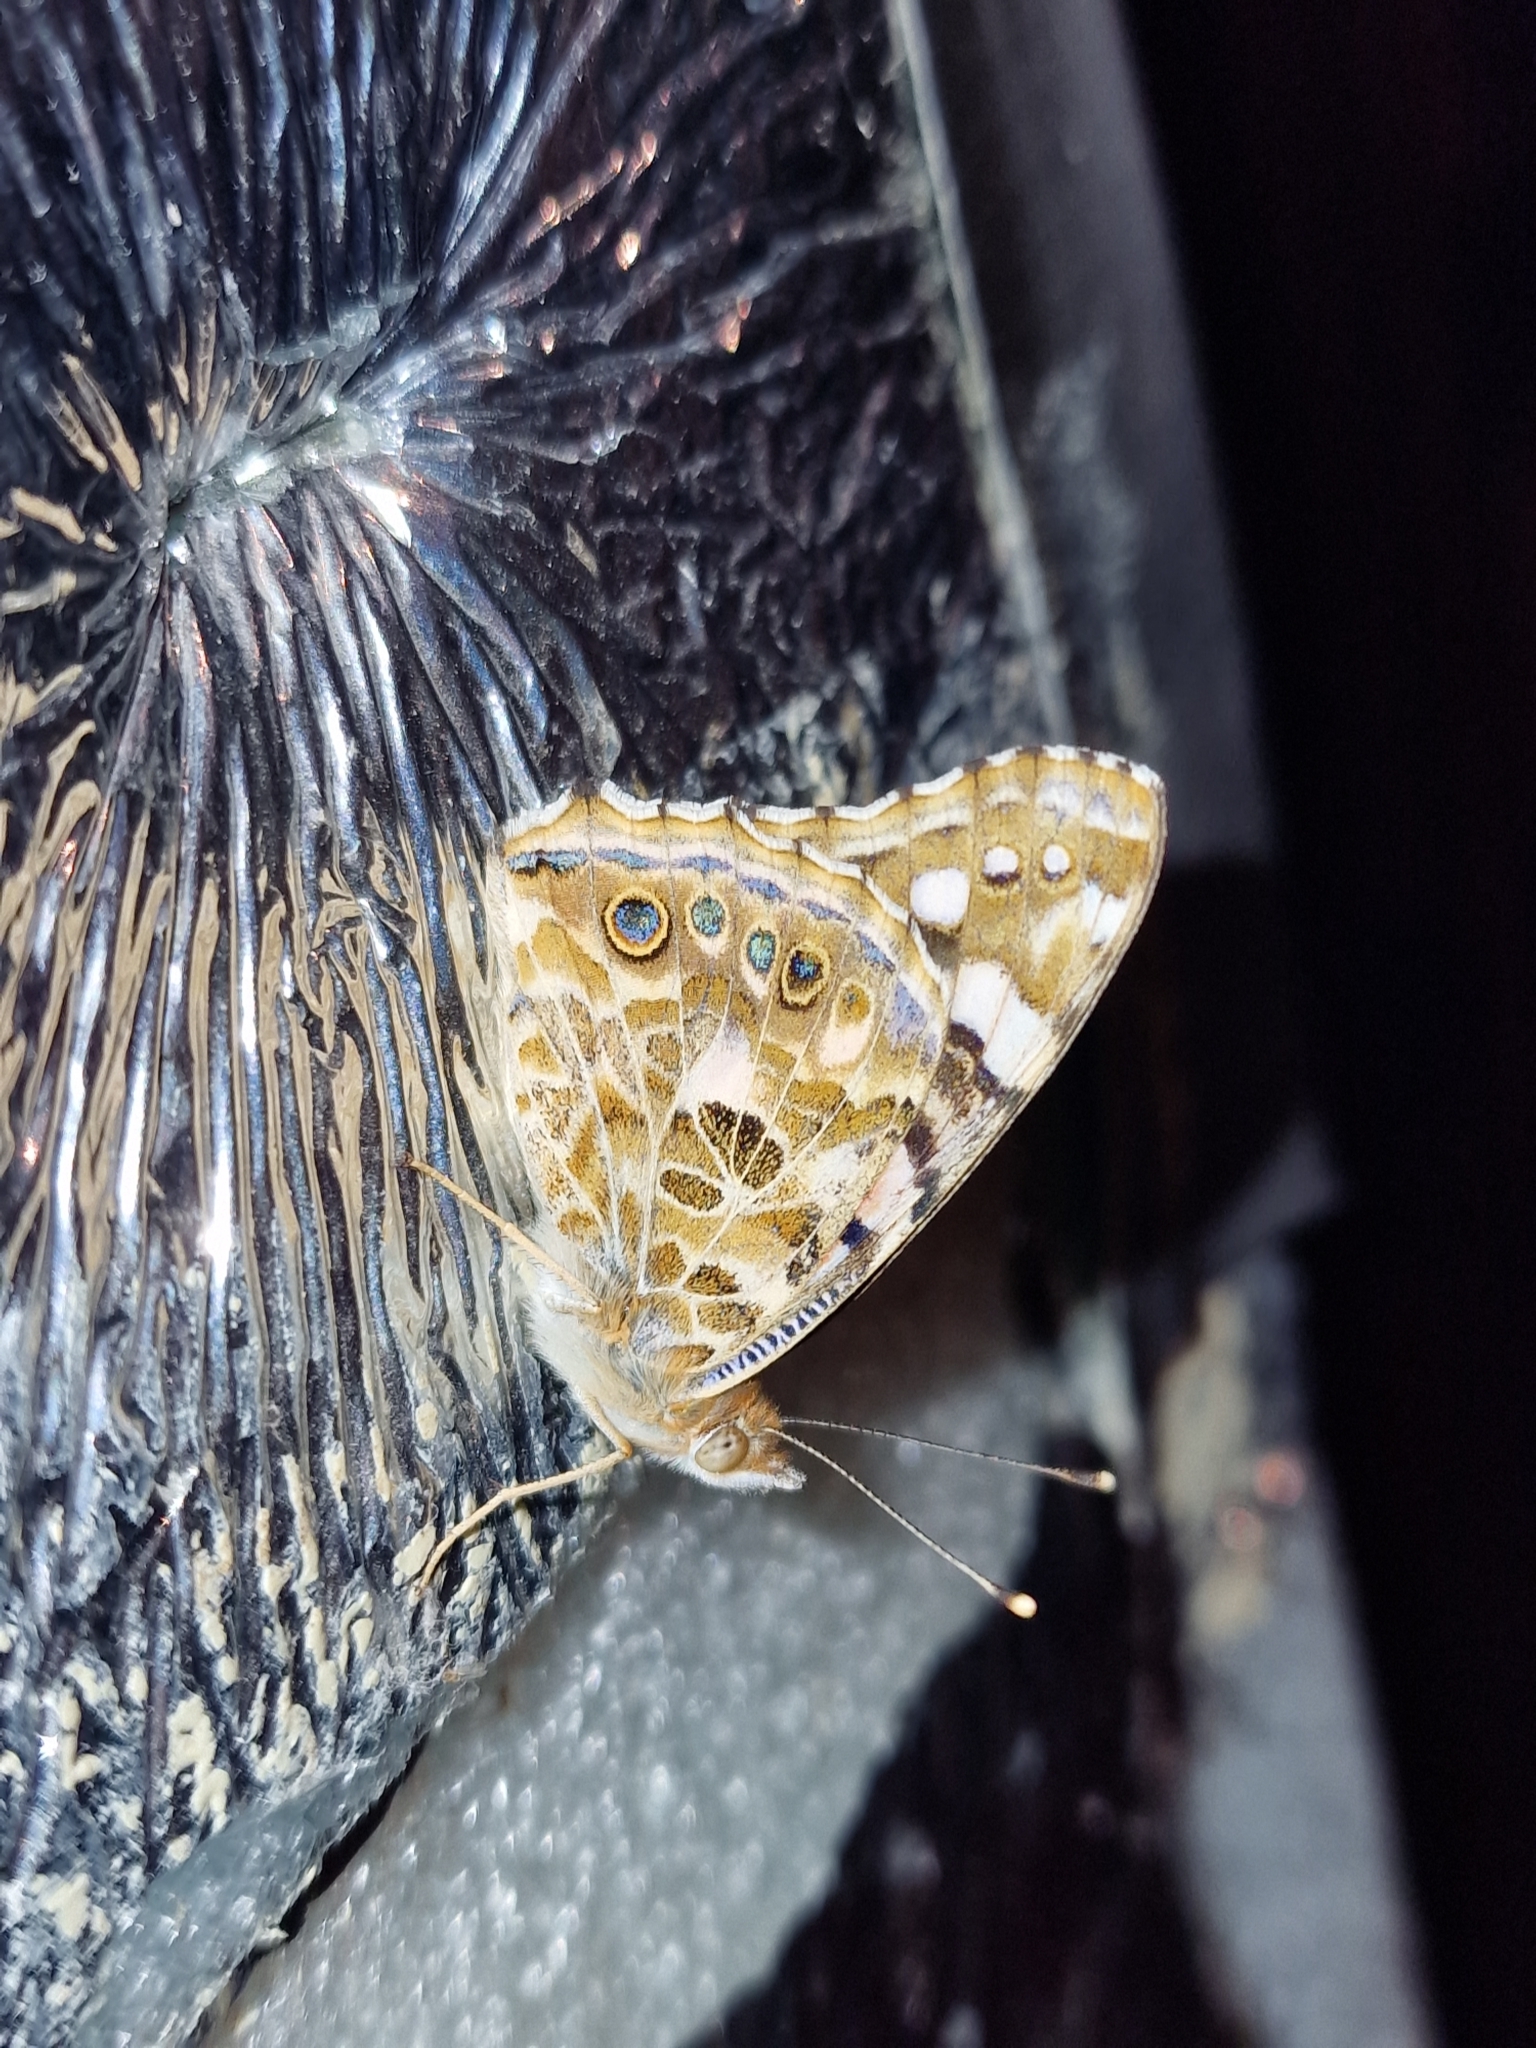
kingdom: Animalia
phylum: Arthropoda
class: Insecta
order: Lepidoptera
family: Nymphalidae
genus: Vanessa
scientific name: Vanessa cardui
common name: Painted lady
